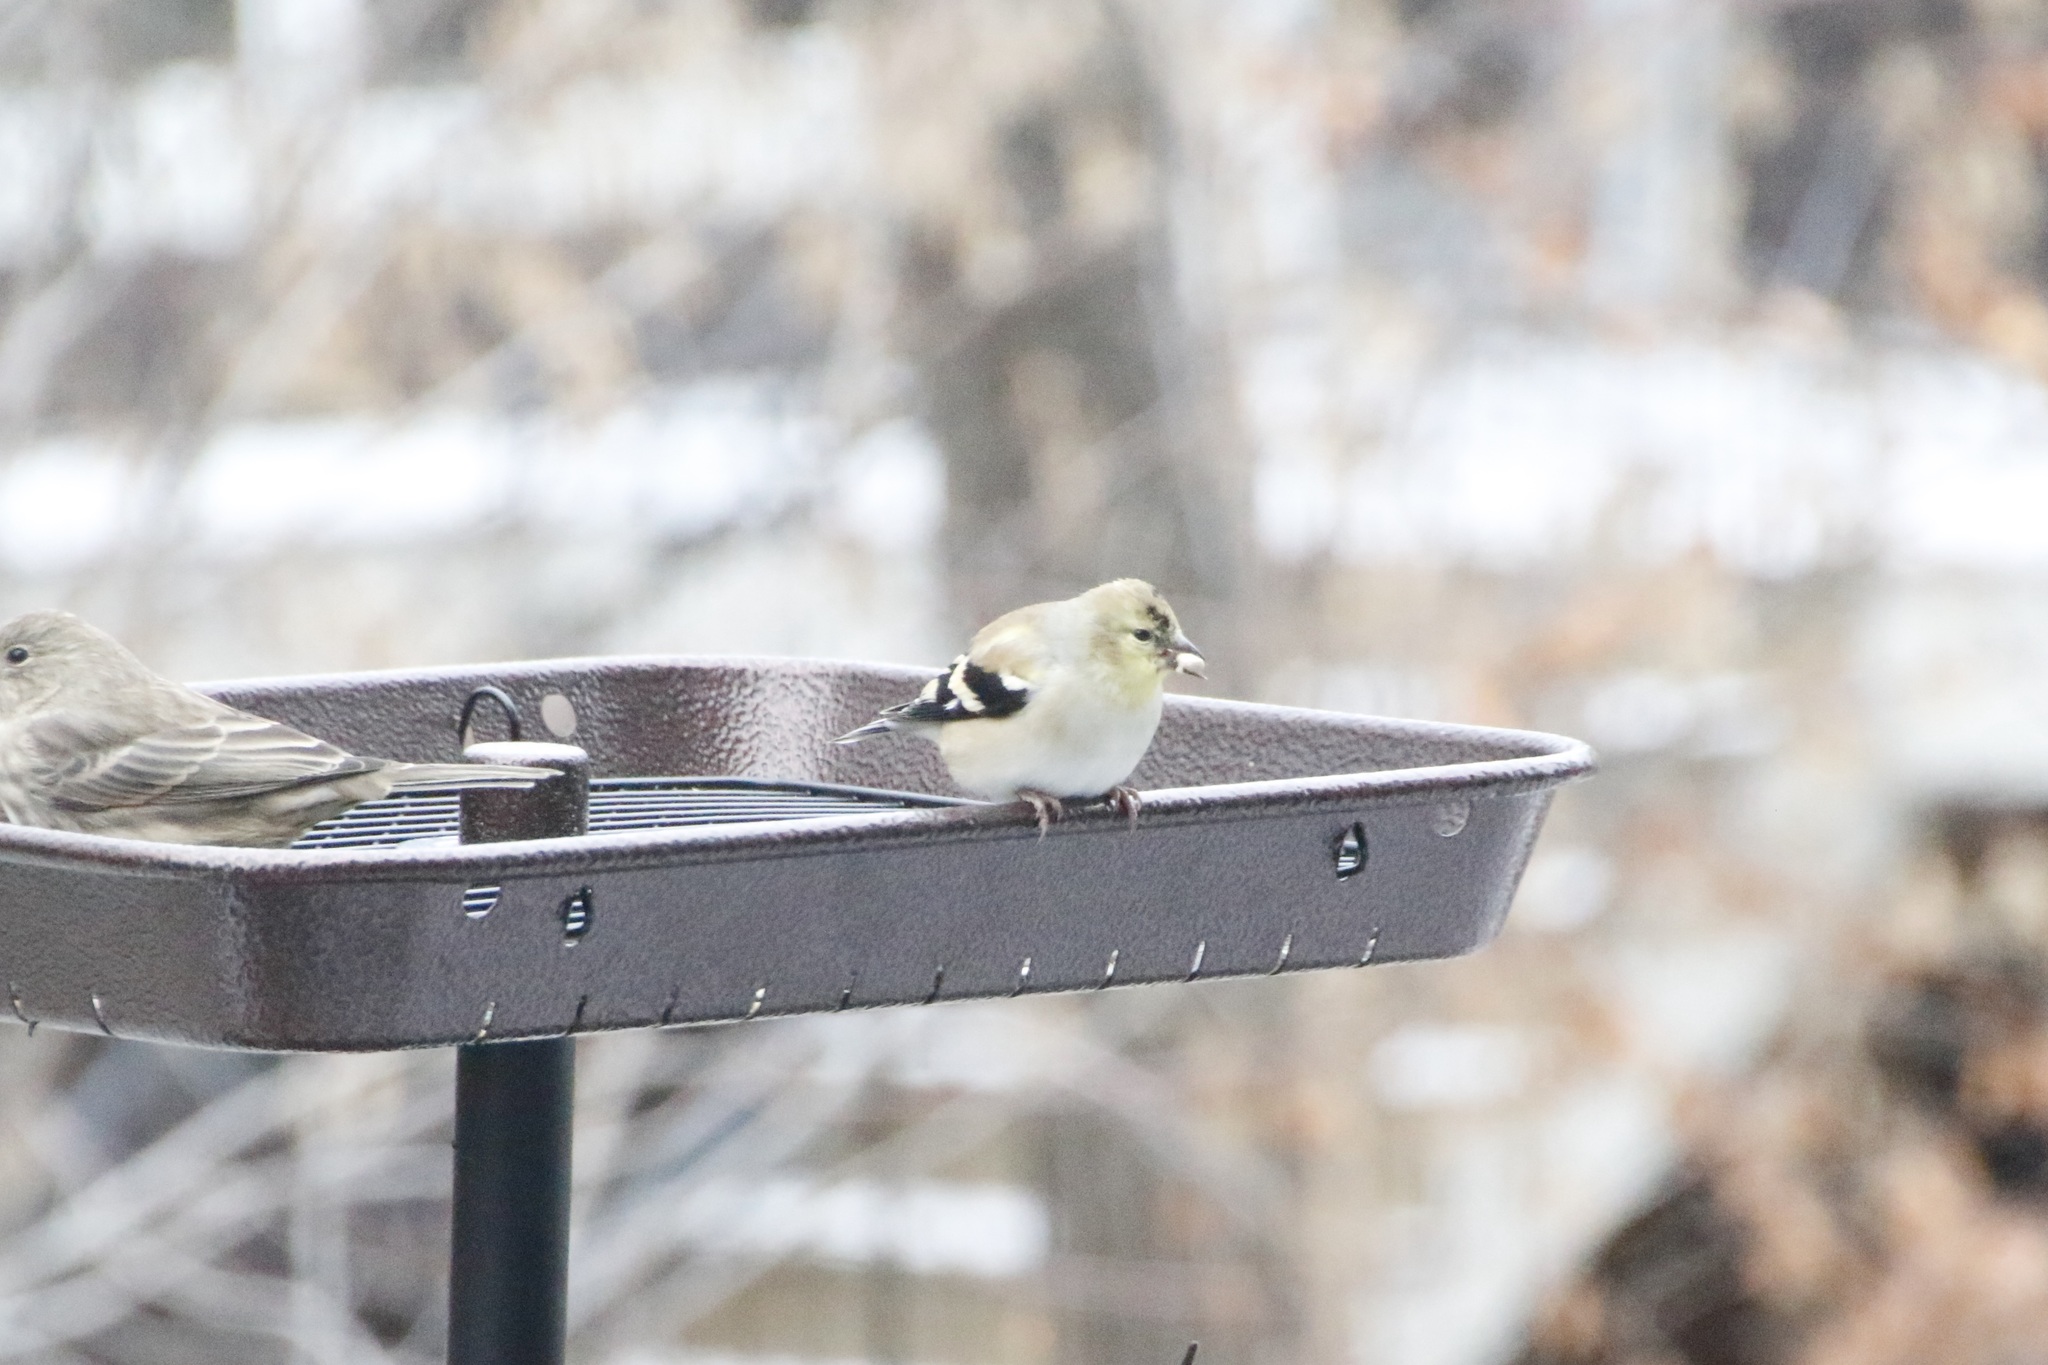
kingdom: Animalia
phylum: Chordata
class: Aves
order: Passeriformes
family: Fringillidae
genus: Spinus
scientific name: Spinus tristis
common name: American goldfinch
